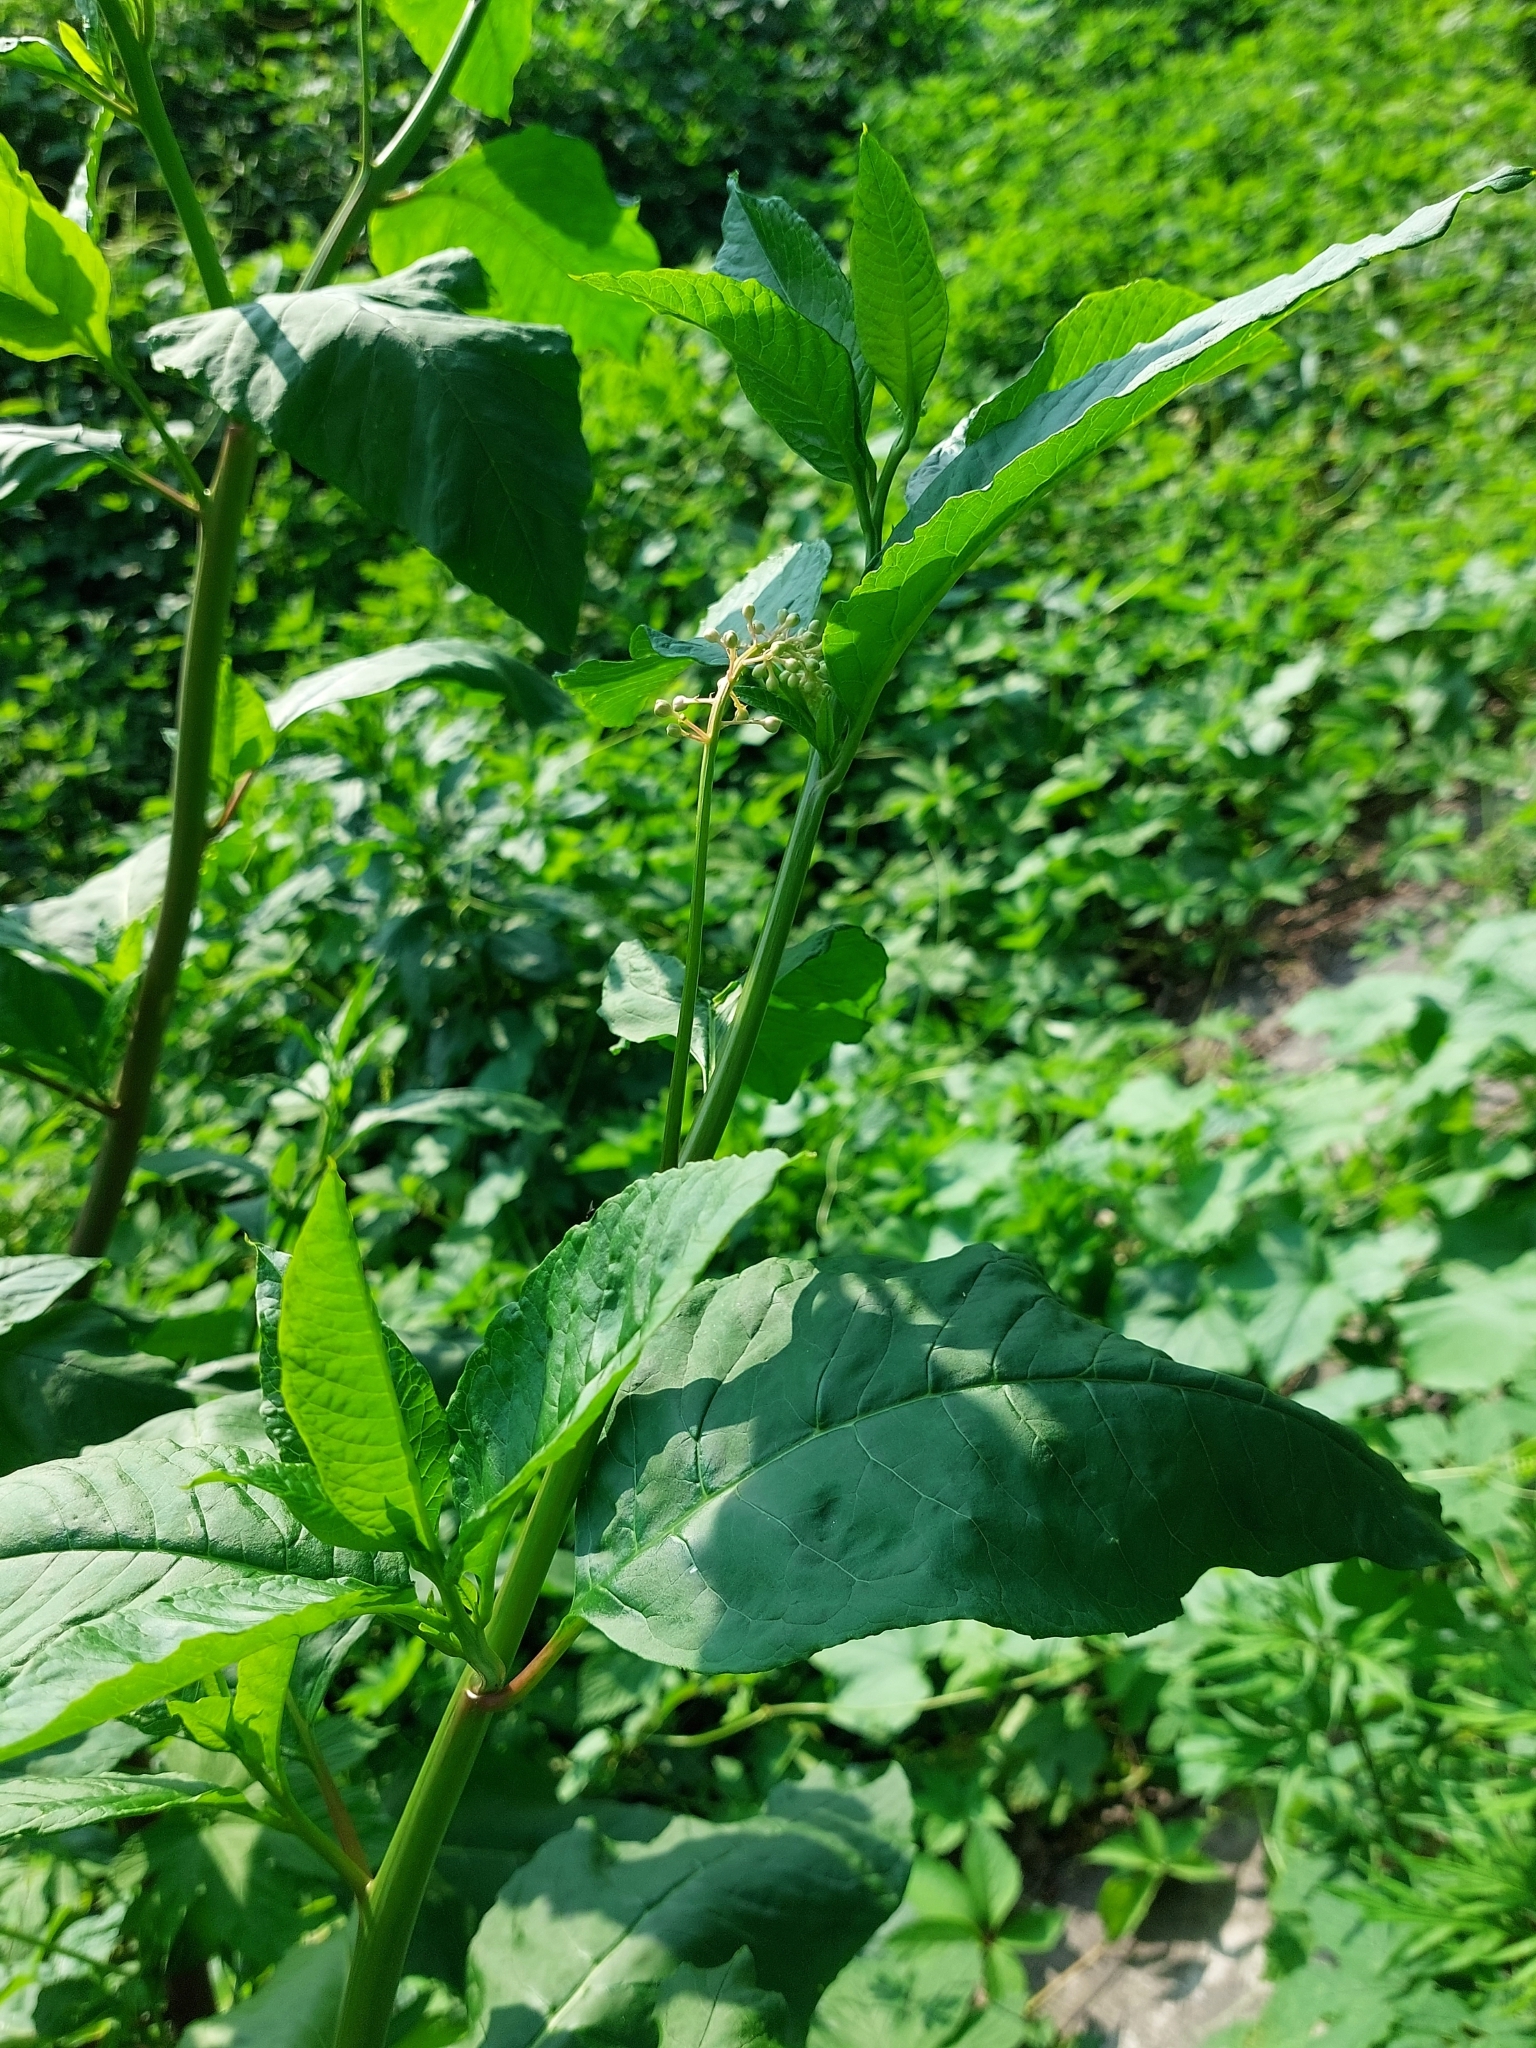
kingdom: Plantae
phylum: Tracheophyta
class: Magnoliopsida
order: Caryophyllales
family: Phytolaccaceae
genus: Phytolacca
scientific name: Phytolacca americana
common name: American pokeweed
